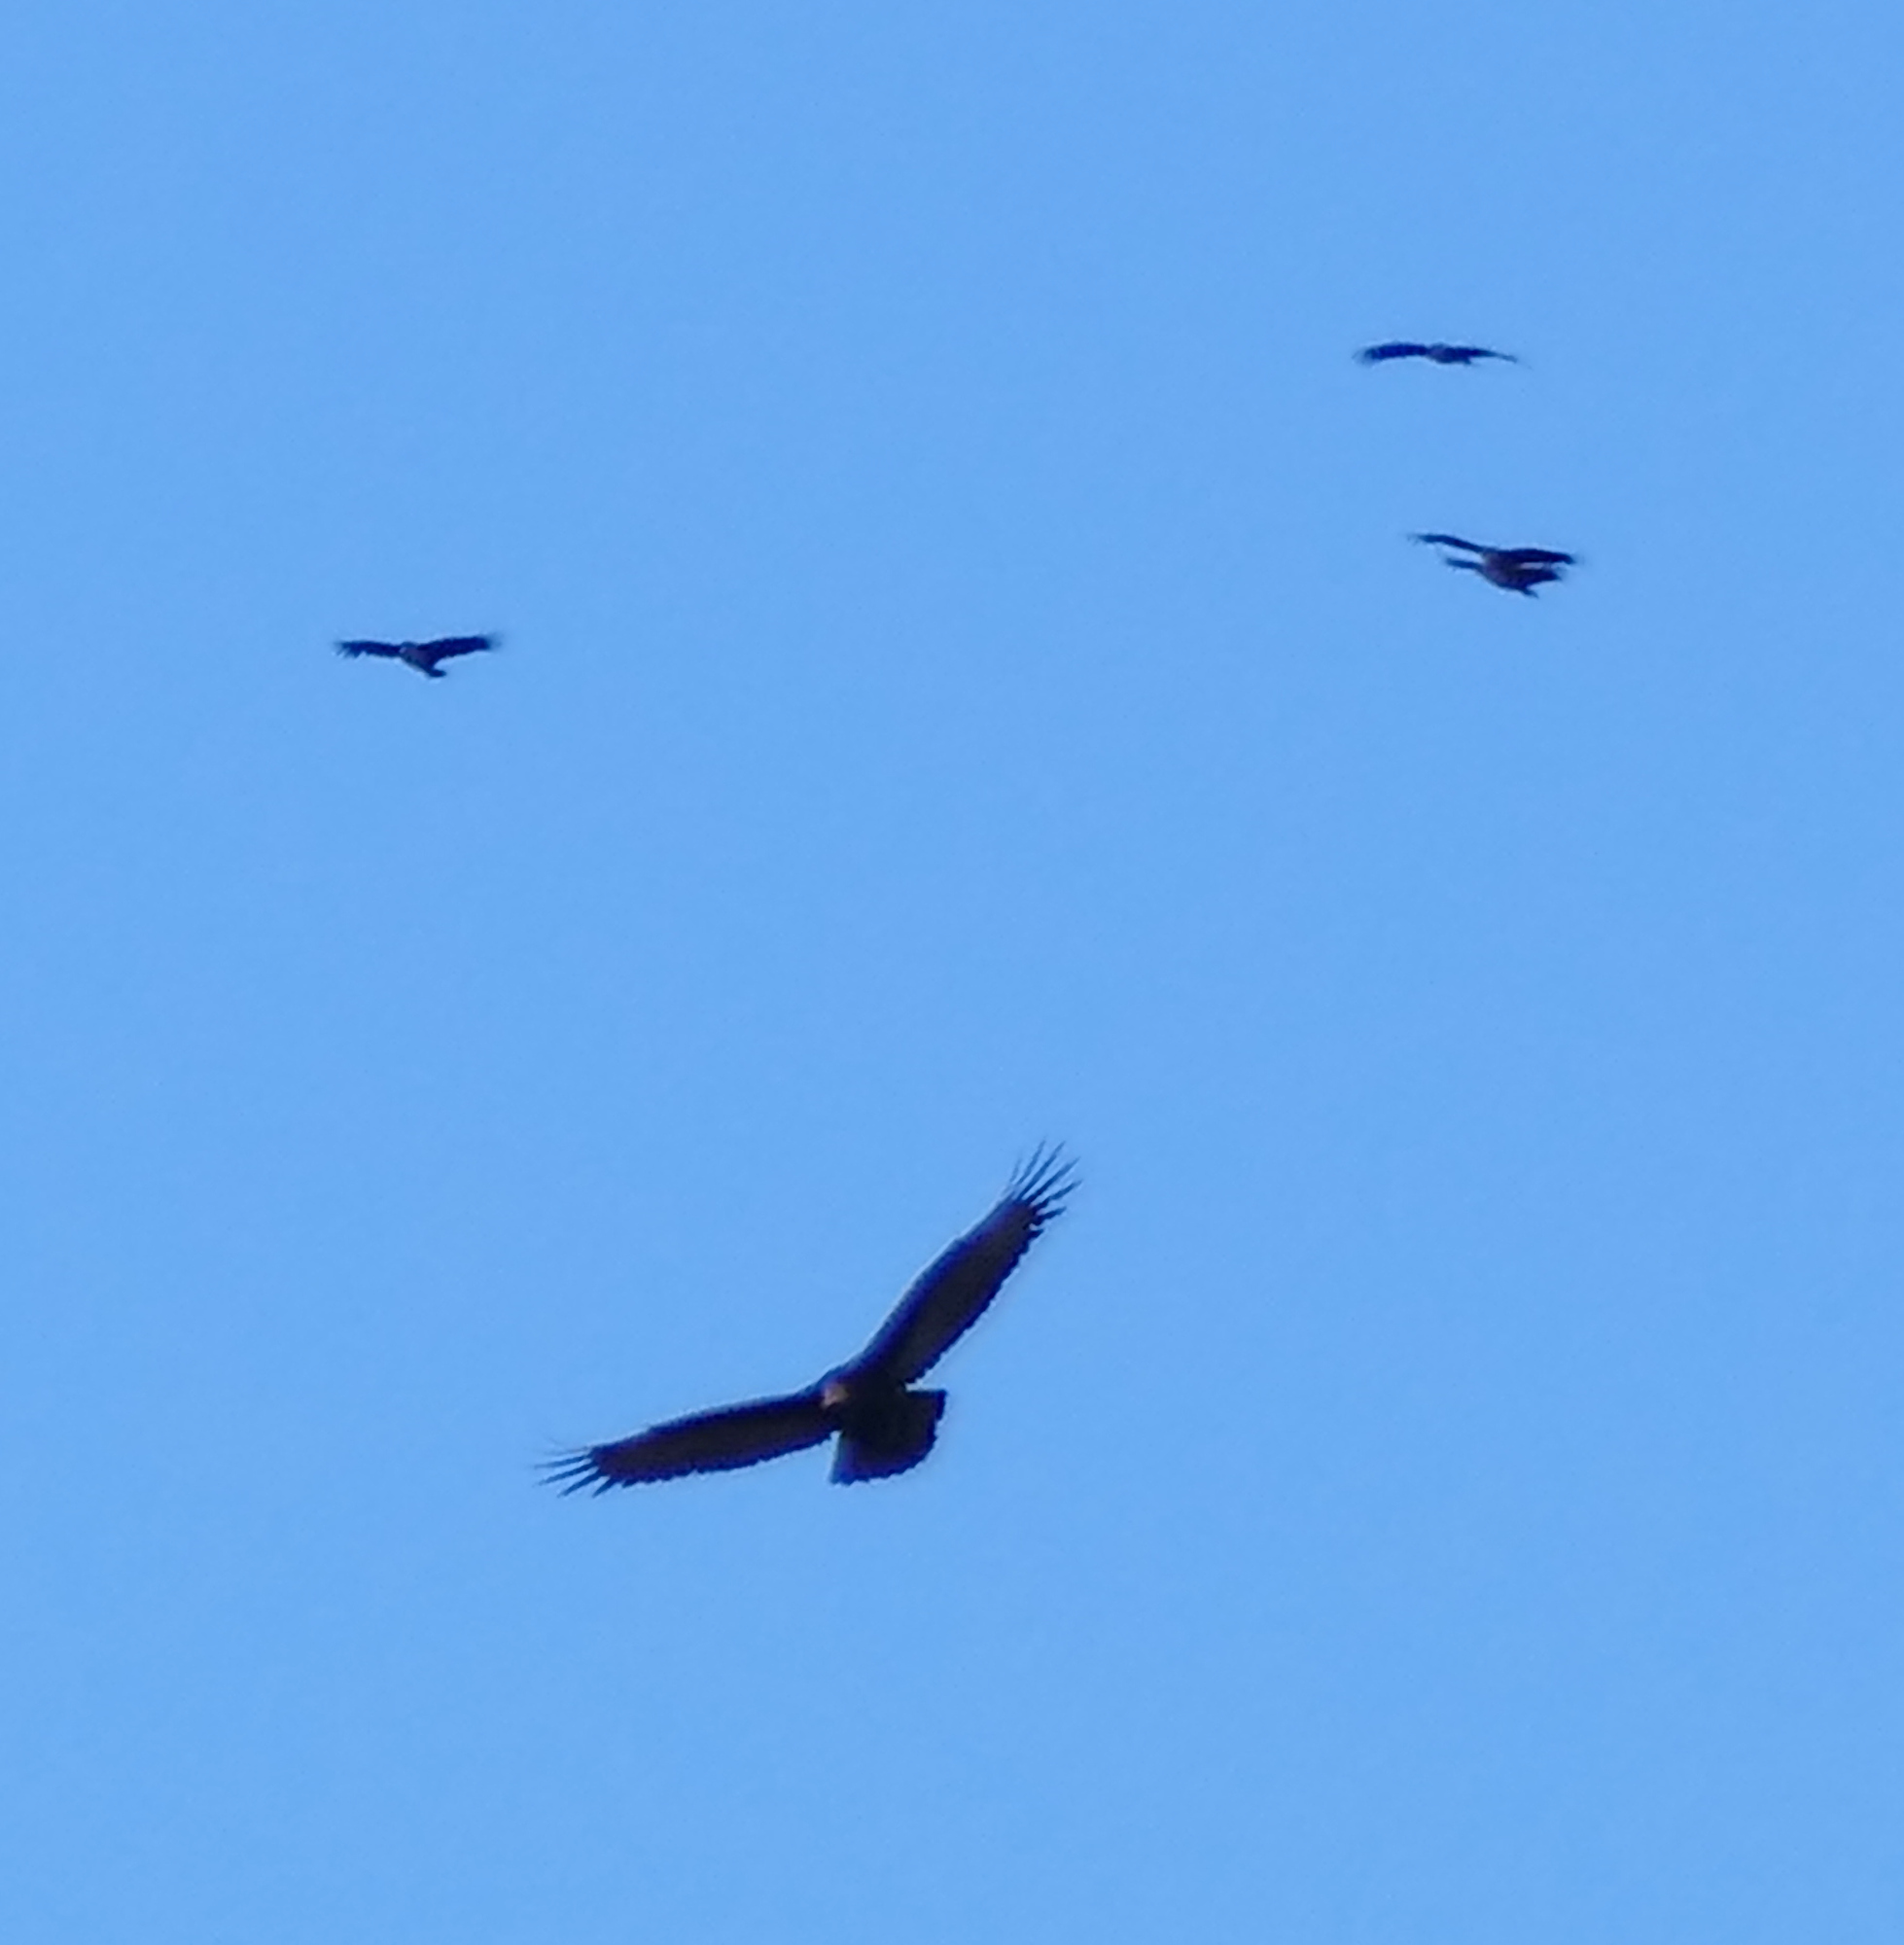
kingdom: Animalia
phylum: Chordata
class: Aves
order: Accipitriformes
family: Cathartidae
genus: Cathartes
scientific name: Cathartes aura
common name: Turkey vulture
